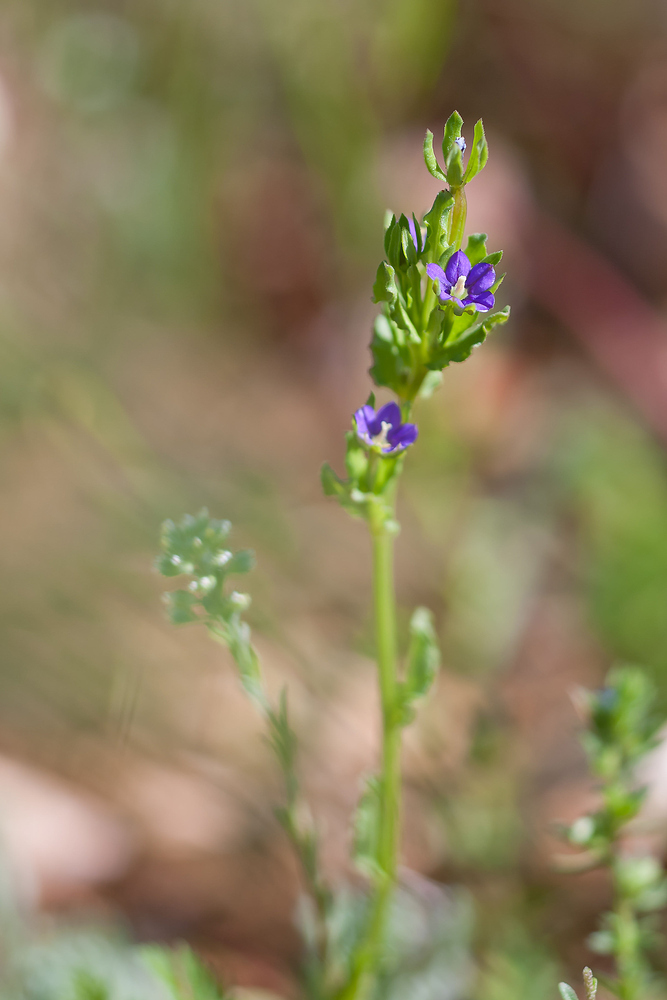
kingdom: Plantae
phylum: Tracheophyta
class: Magnoliopsida
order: Asterales
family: Campanulaceae
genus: Legousia
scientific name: Legousia hybrida
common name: Venus's-looking-glass
